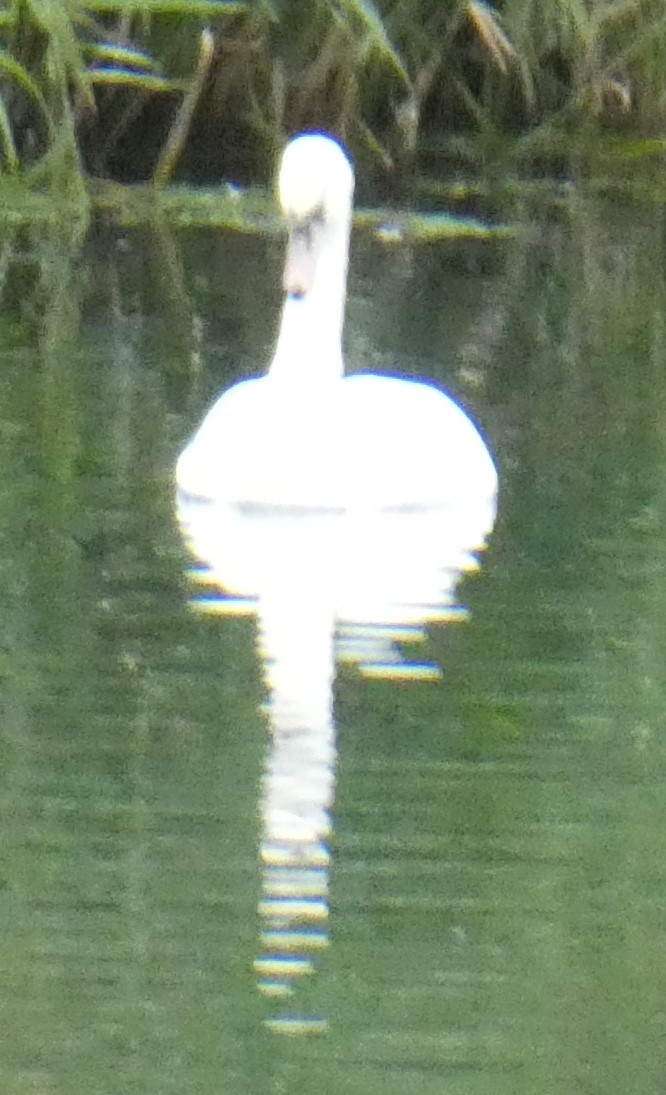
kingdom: Animalia
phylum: Chordata
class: Aves
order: Anseriformes
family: Anatidae
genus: Cygnus
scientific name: Cygnus olor
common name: Mute swan
